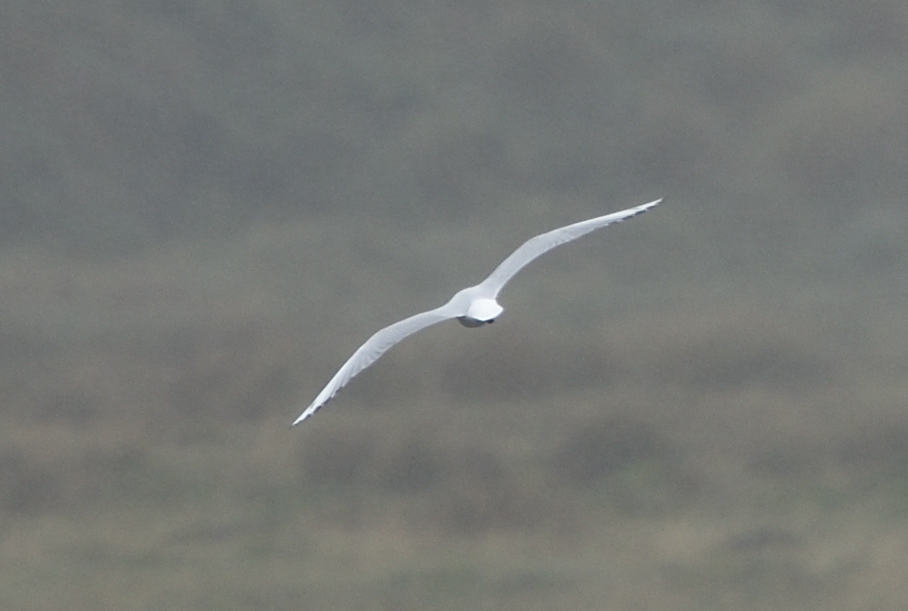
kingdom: Animalia
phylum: Chordata
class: Aves
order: Charadriiformes
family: Laridae
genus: Chroicocephalus
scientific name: Chroicocephalus serranus
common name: Andean gull
